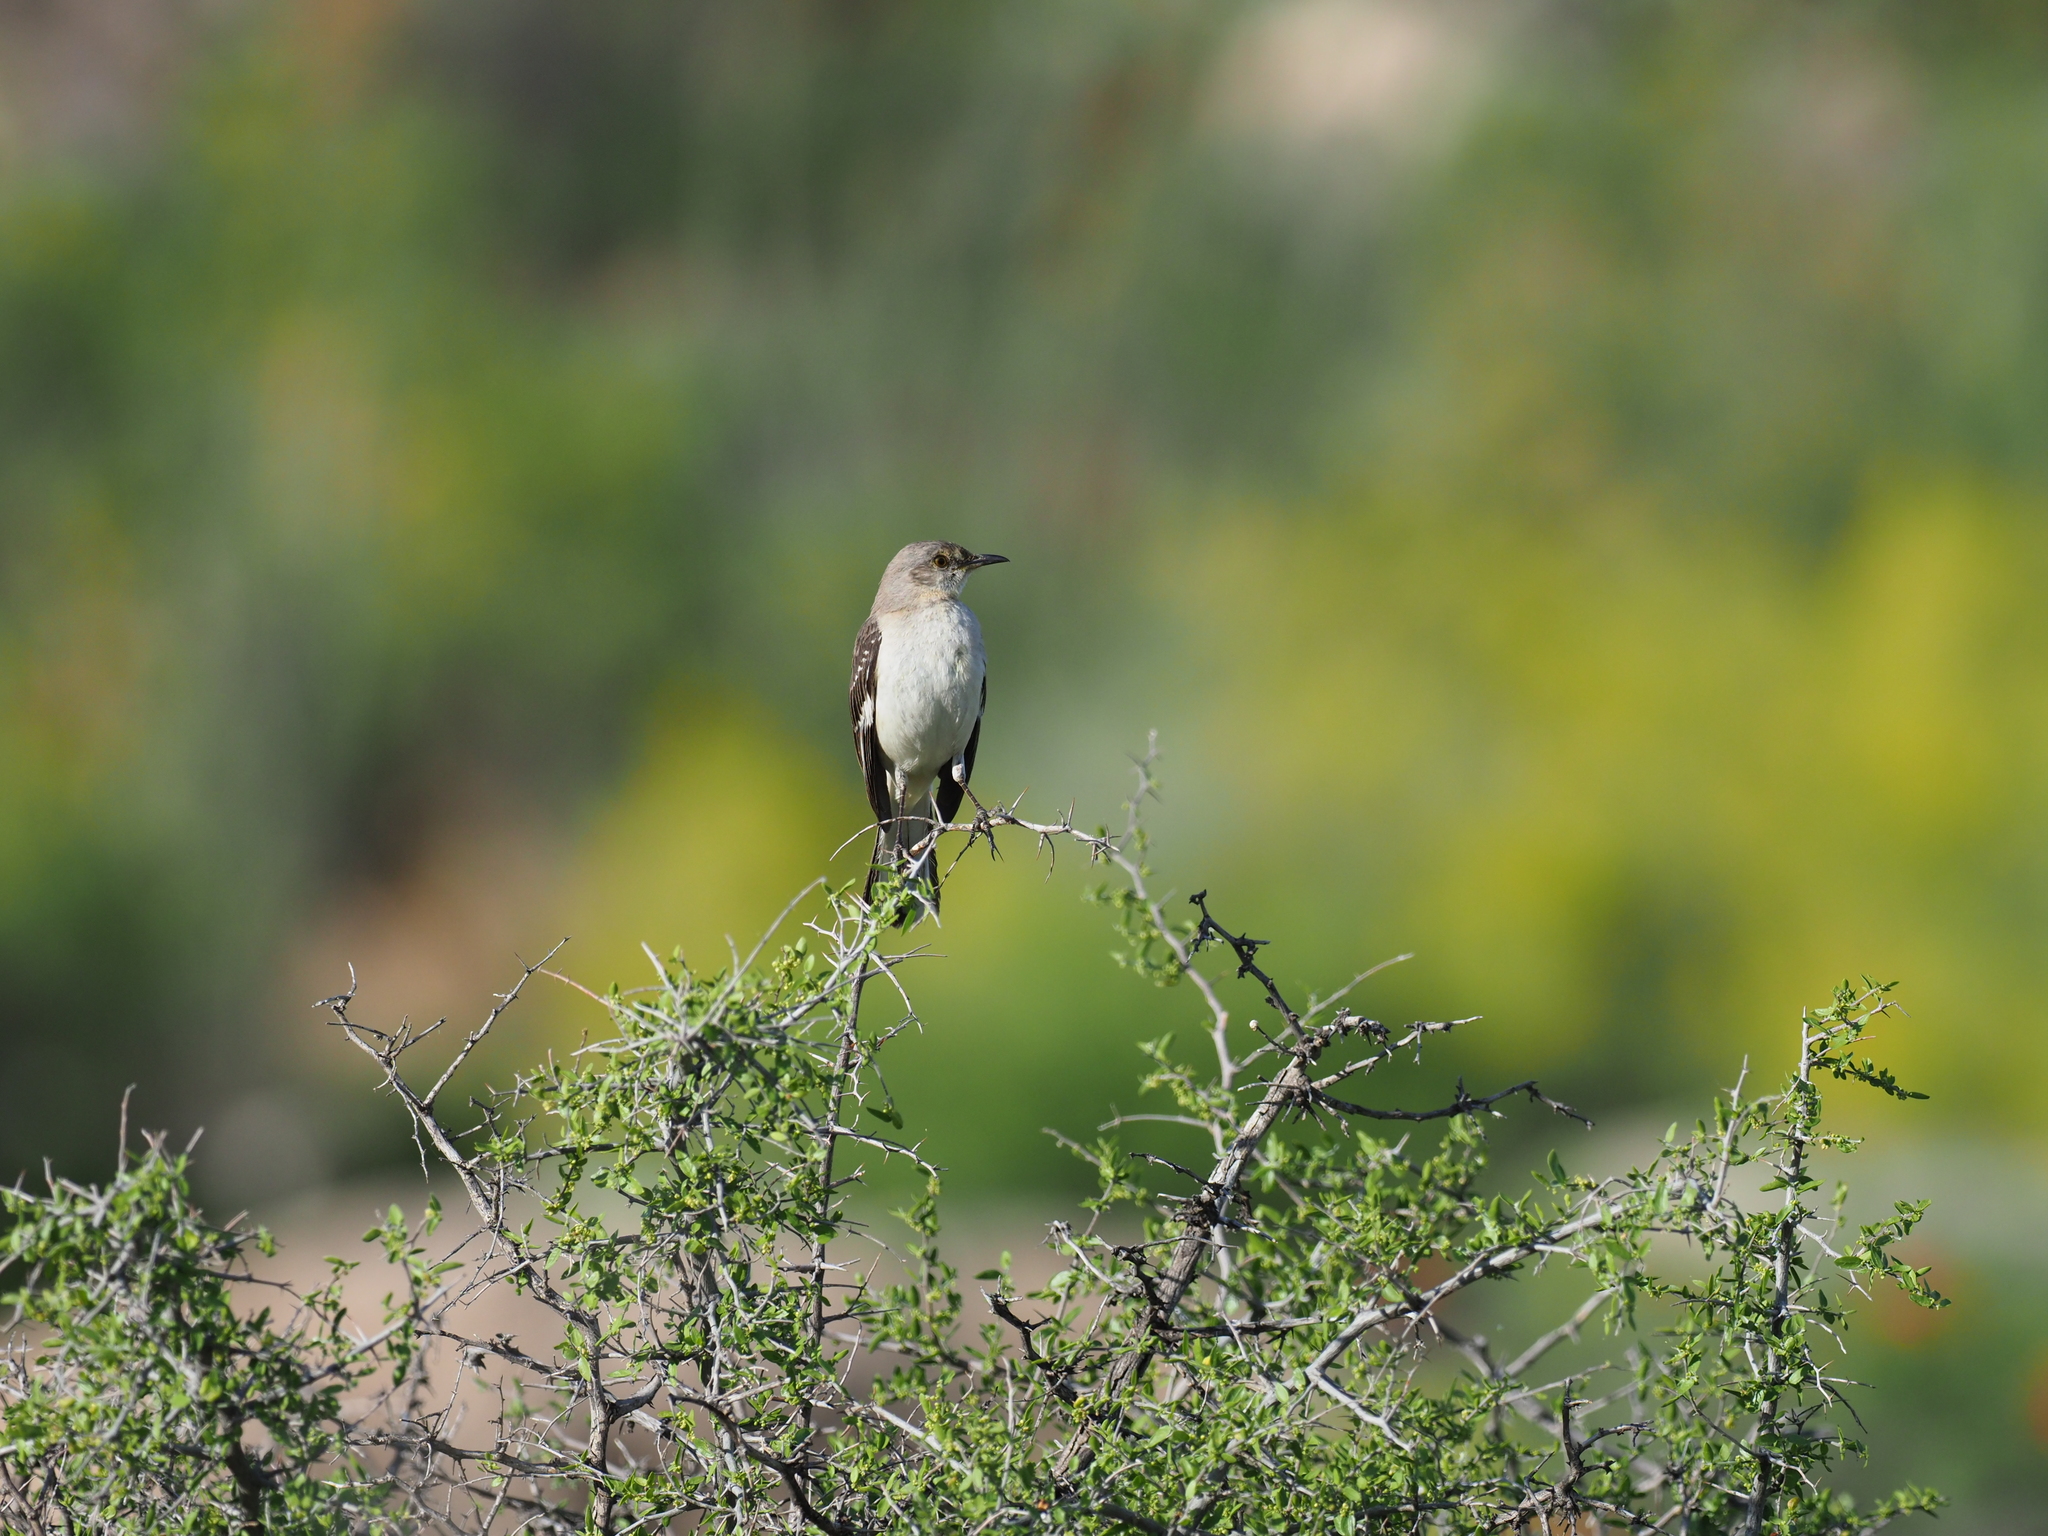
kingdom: Animalia
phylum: Chordata
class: Aves
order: Passeriformes
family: Mimidae
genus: Mimus
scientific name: Mimus polyglottos
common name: Northern mockingbird
